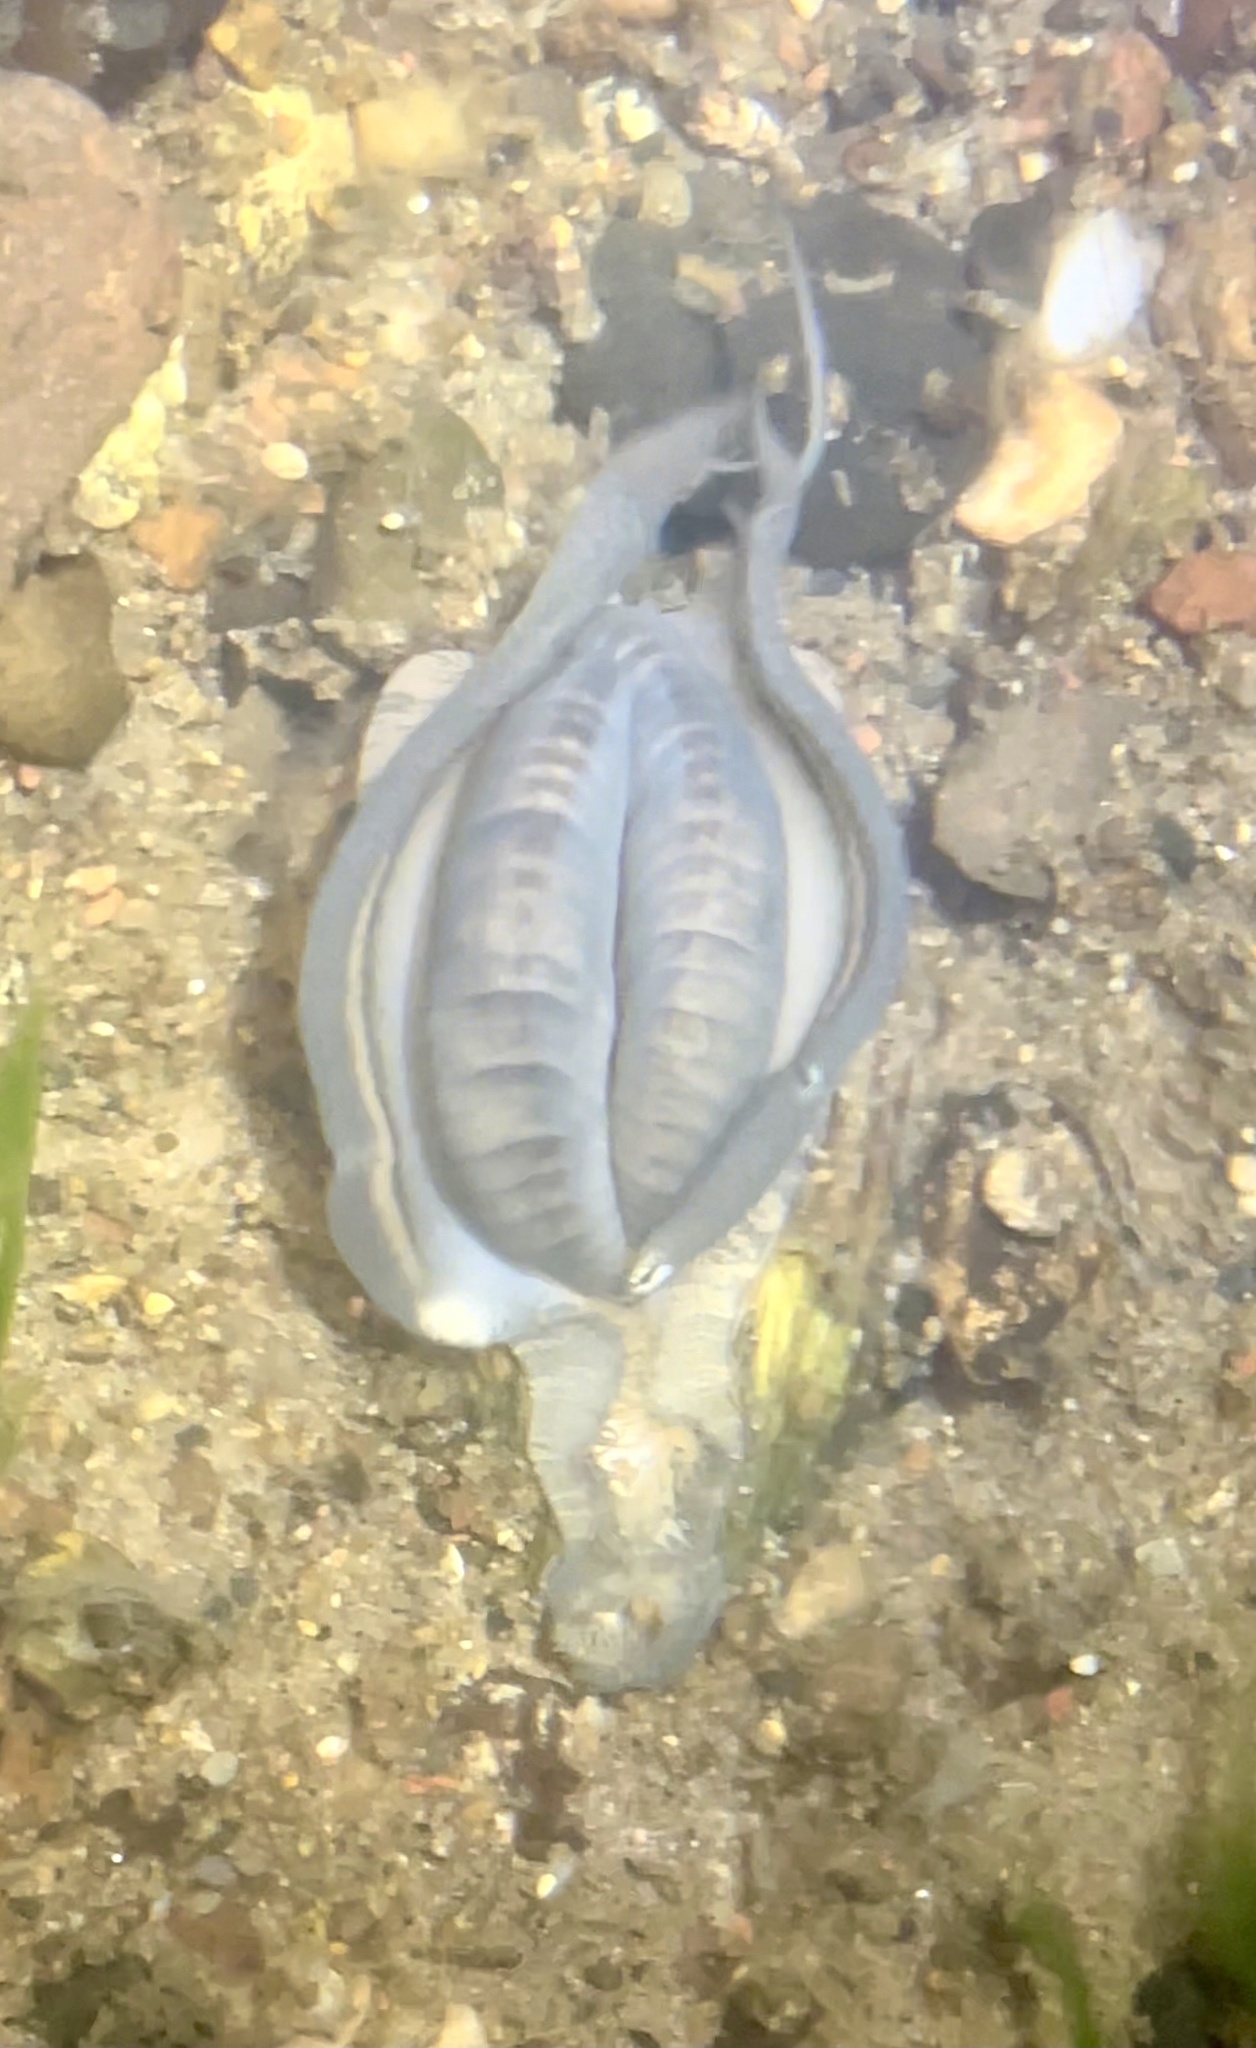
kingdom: Animalia
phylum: Mollusca
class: Bivalvia
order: Unionida
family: Unionidae
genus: Lampsilis
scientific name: Lampsilis cardium
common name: Plain pocketbook
